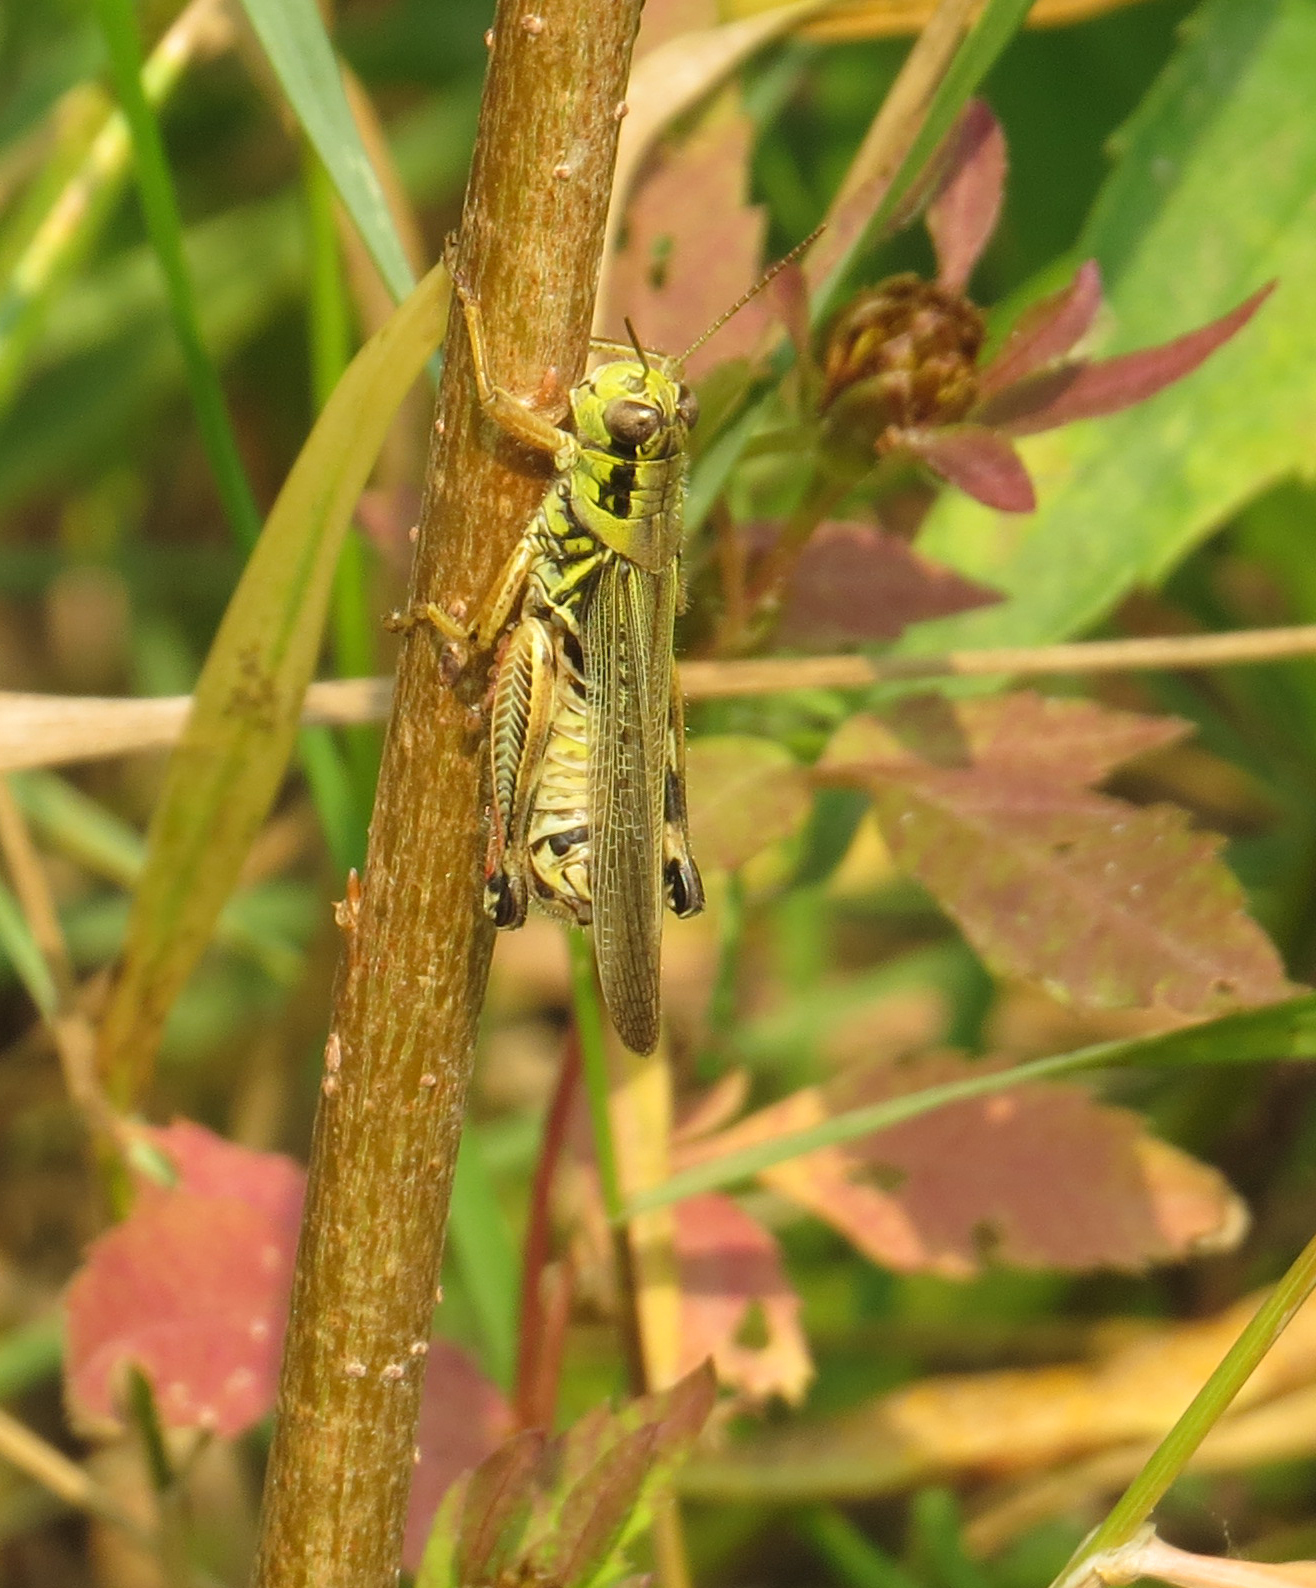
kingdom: Animalia
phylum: Arthropoda
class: Insecta
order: Orthoptera
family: Acrididae
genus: Melanoplus
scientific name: Melanoplus femurrubrum
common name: Red-legged grasshopper
